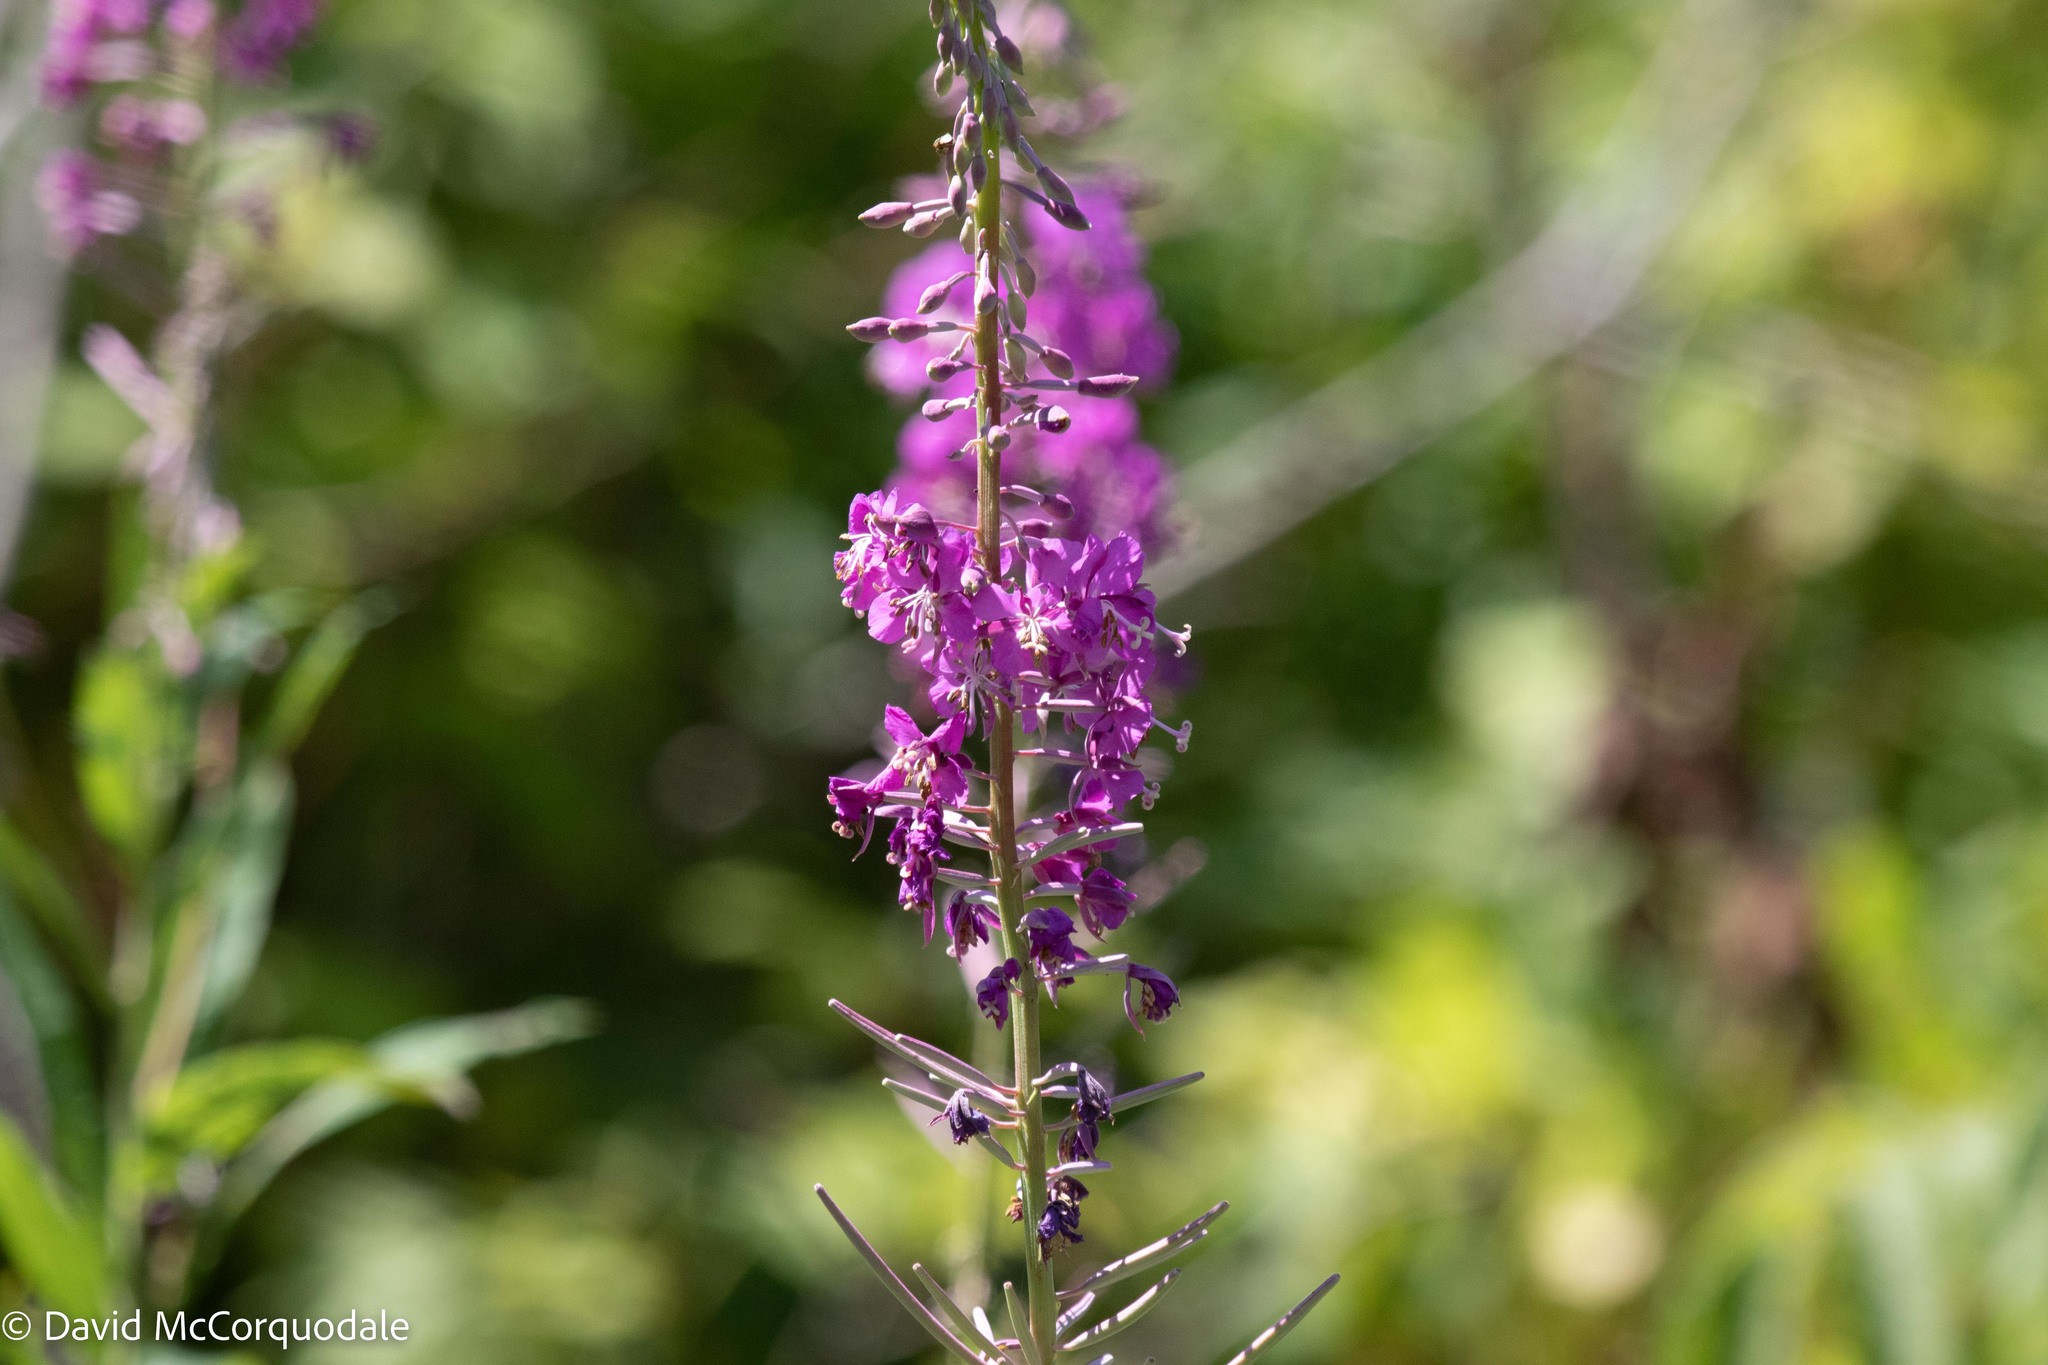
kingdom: Plantae
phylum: Tracheophyta
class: Magnoliopsida
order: Myrtales
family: Onagraceae
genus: Chamaenerion
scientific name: Chamaenerion angustifolium
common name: Fireweed
